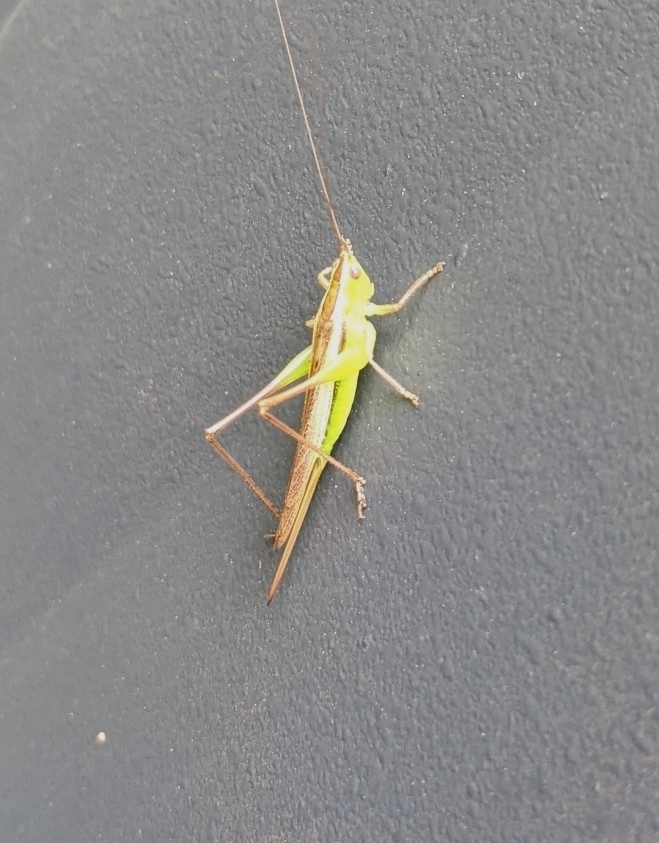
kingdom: Animalia
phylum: Arthropoda
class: Insecta
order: Orthoptera
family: Tettigoniidae
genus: Conocephalus
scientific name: Conocephalus albescens
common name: Whitish meadow katydid
